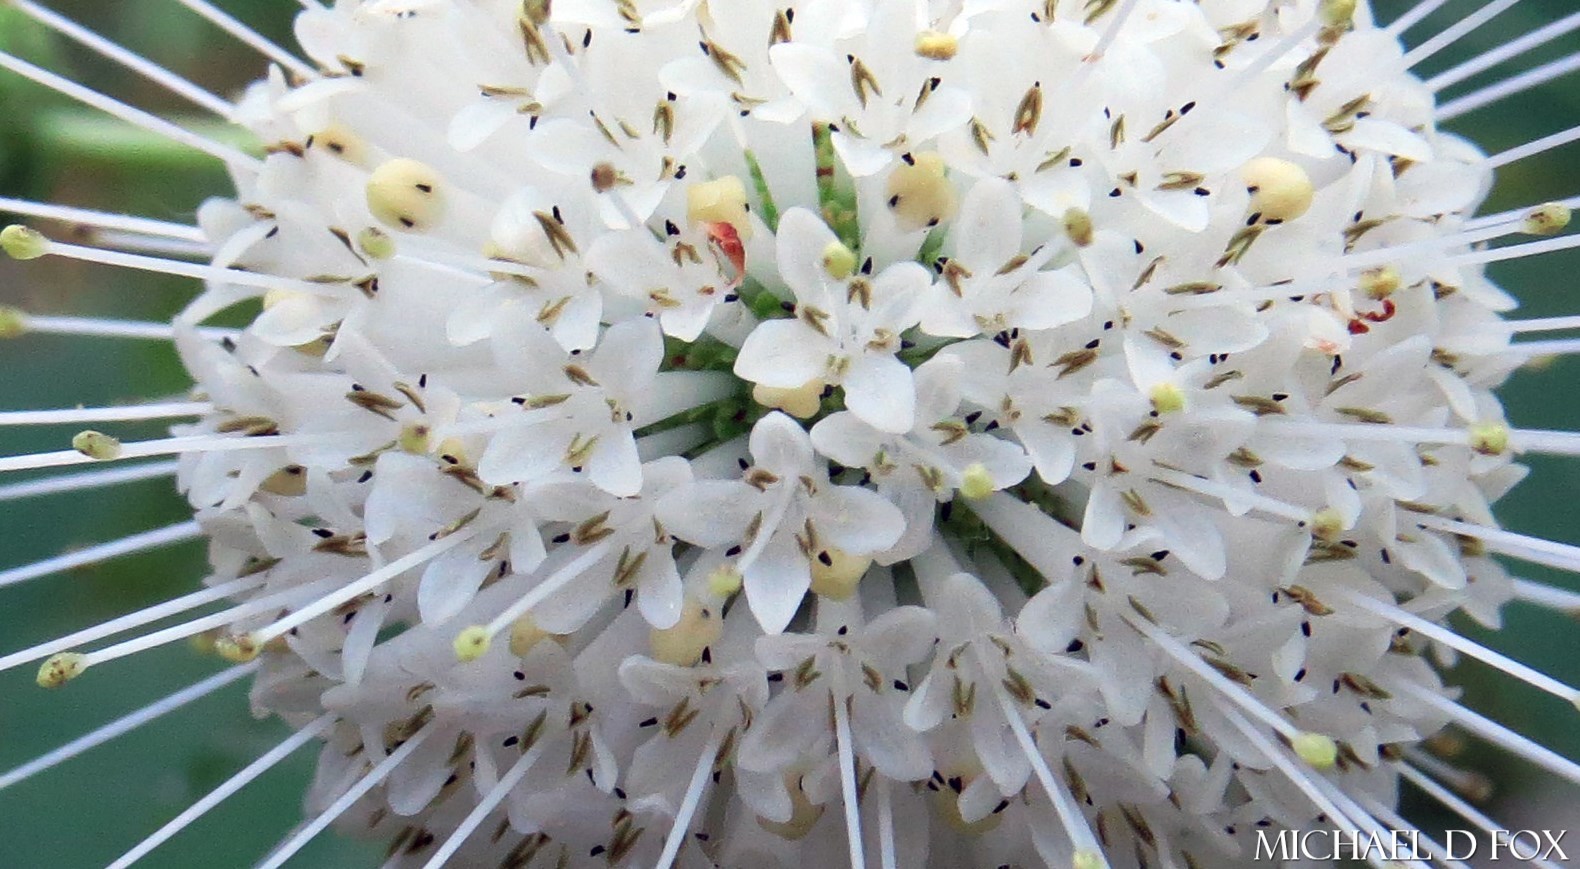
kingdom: Plantae
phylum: Tracheophyta
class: Magnoliopsida
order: Gentianales
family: Rubiaceae
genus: Cephalanthus
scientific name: Cephalanthus occidentalis
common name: Button-willow
